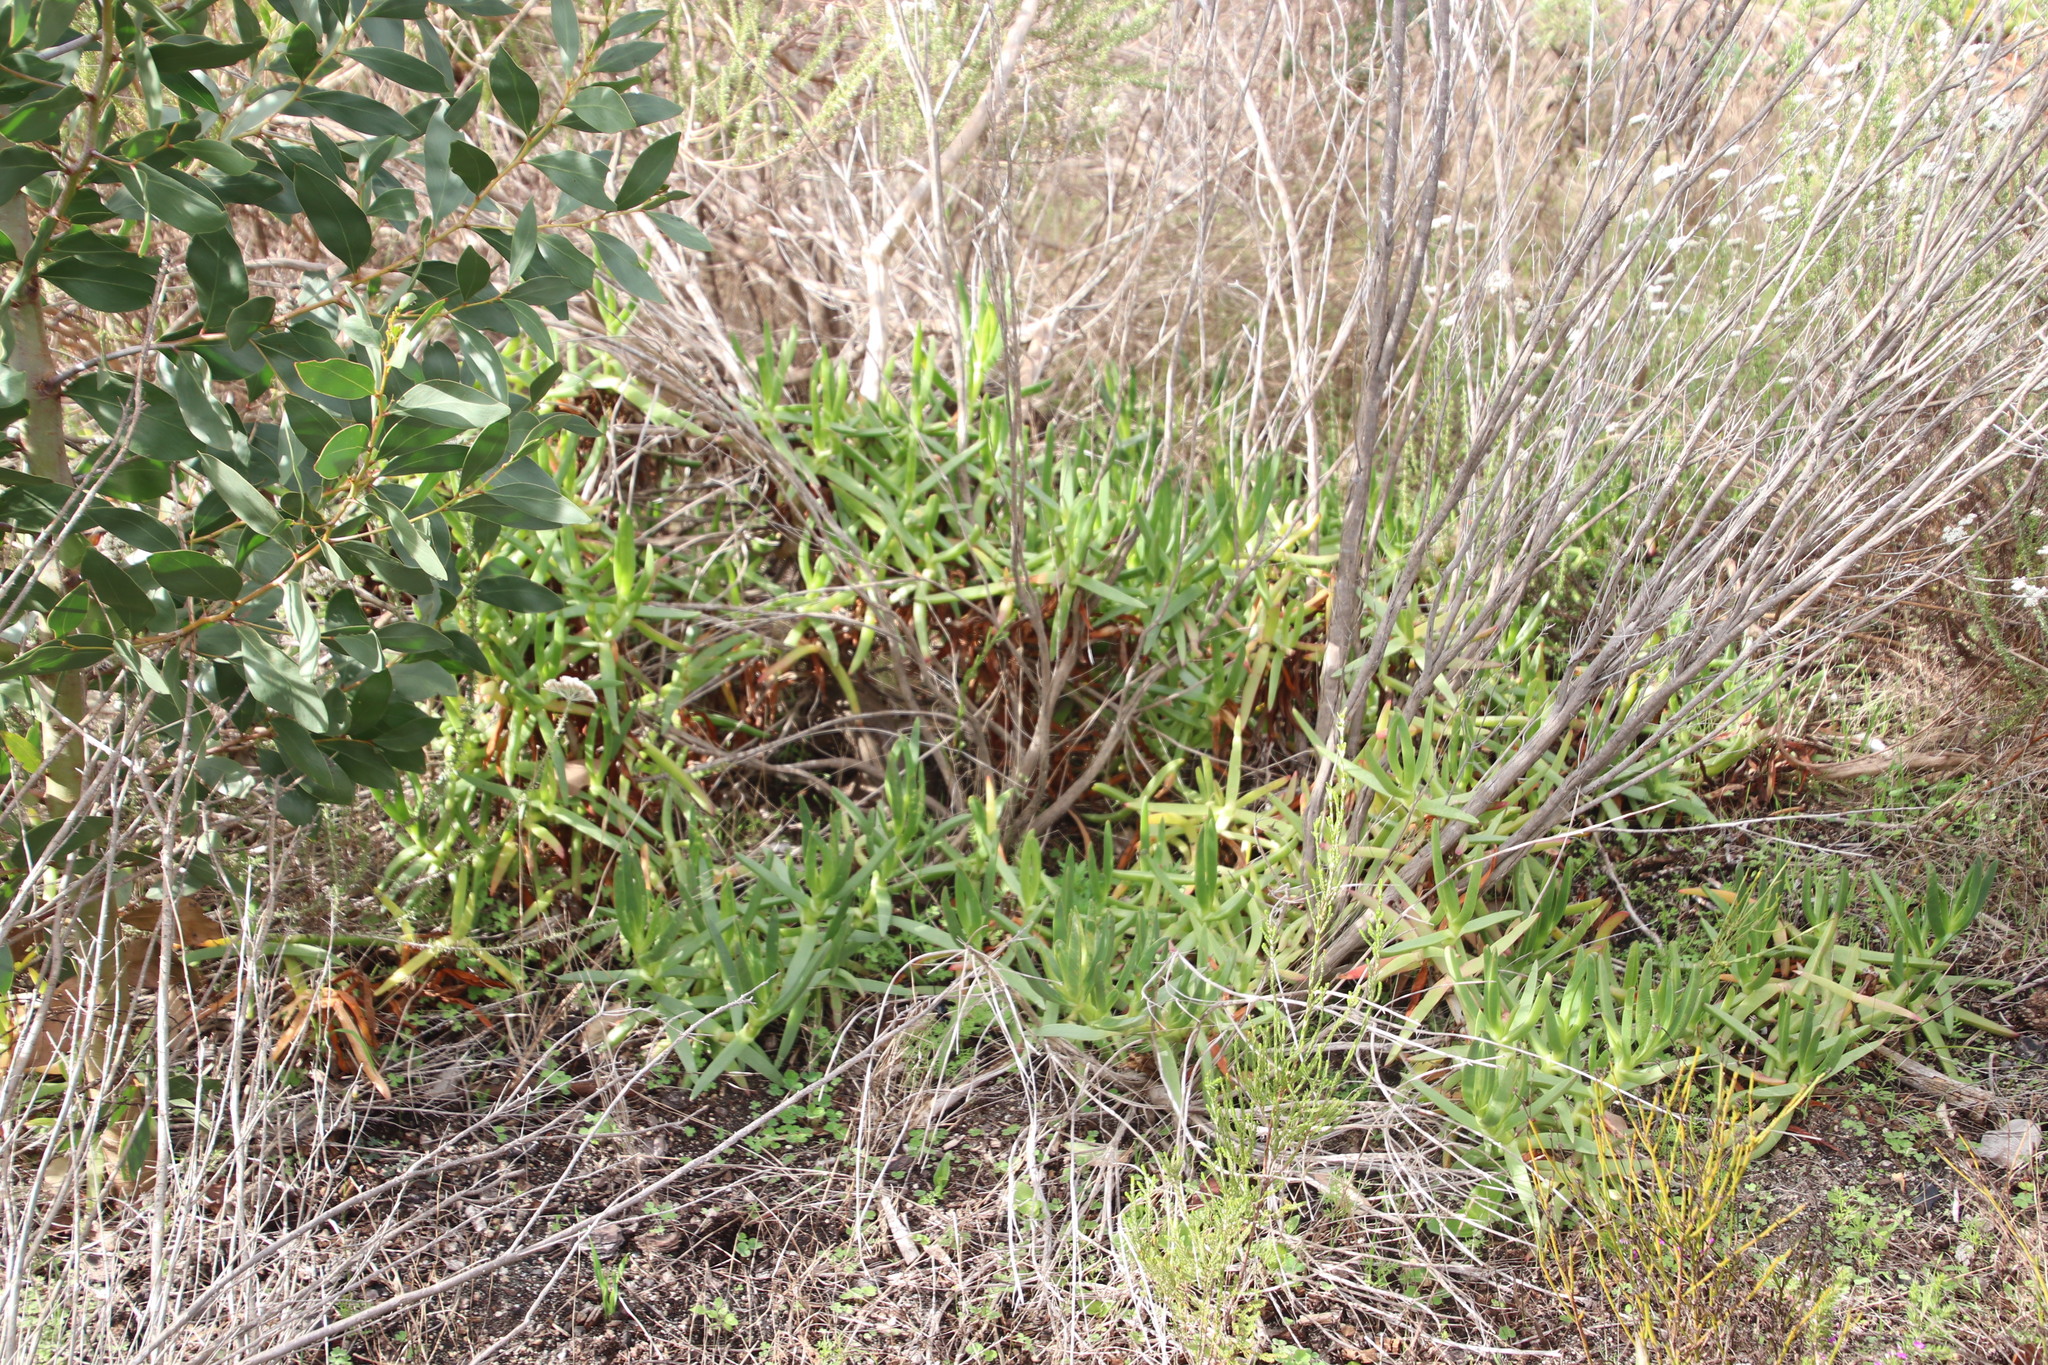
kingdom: Plantae
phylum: Tracheophyta
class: Magnoliopsida
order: Caryophyllales
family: Aizoaceae
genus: Carpobrotus
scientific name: Carpobrotus edulis
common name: Hottentot-fig
